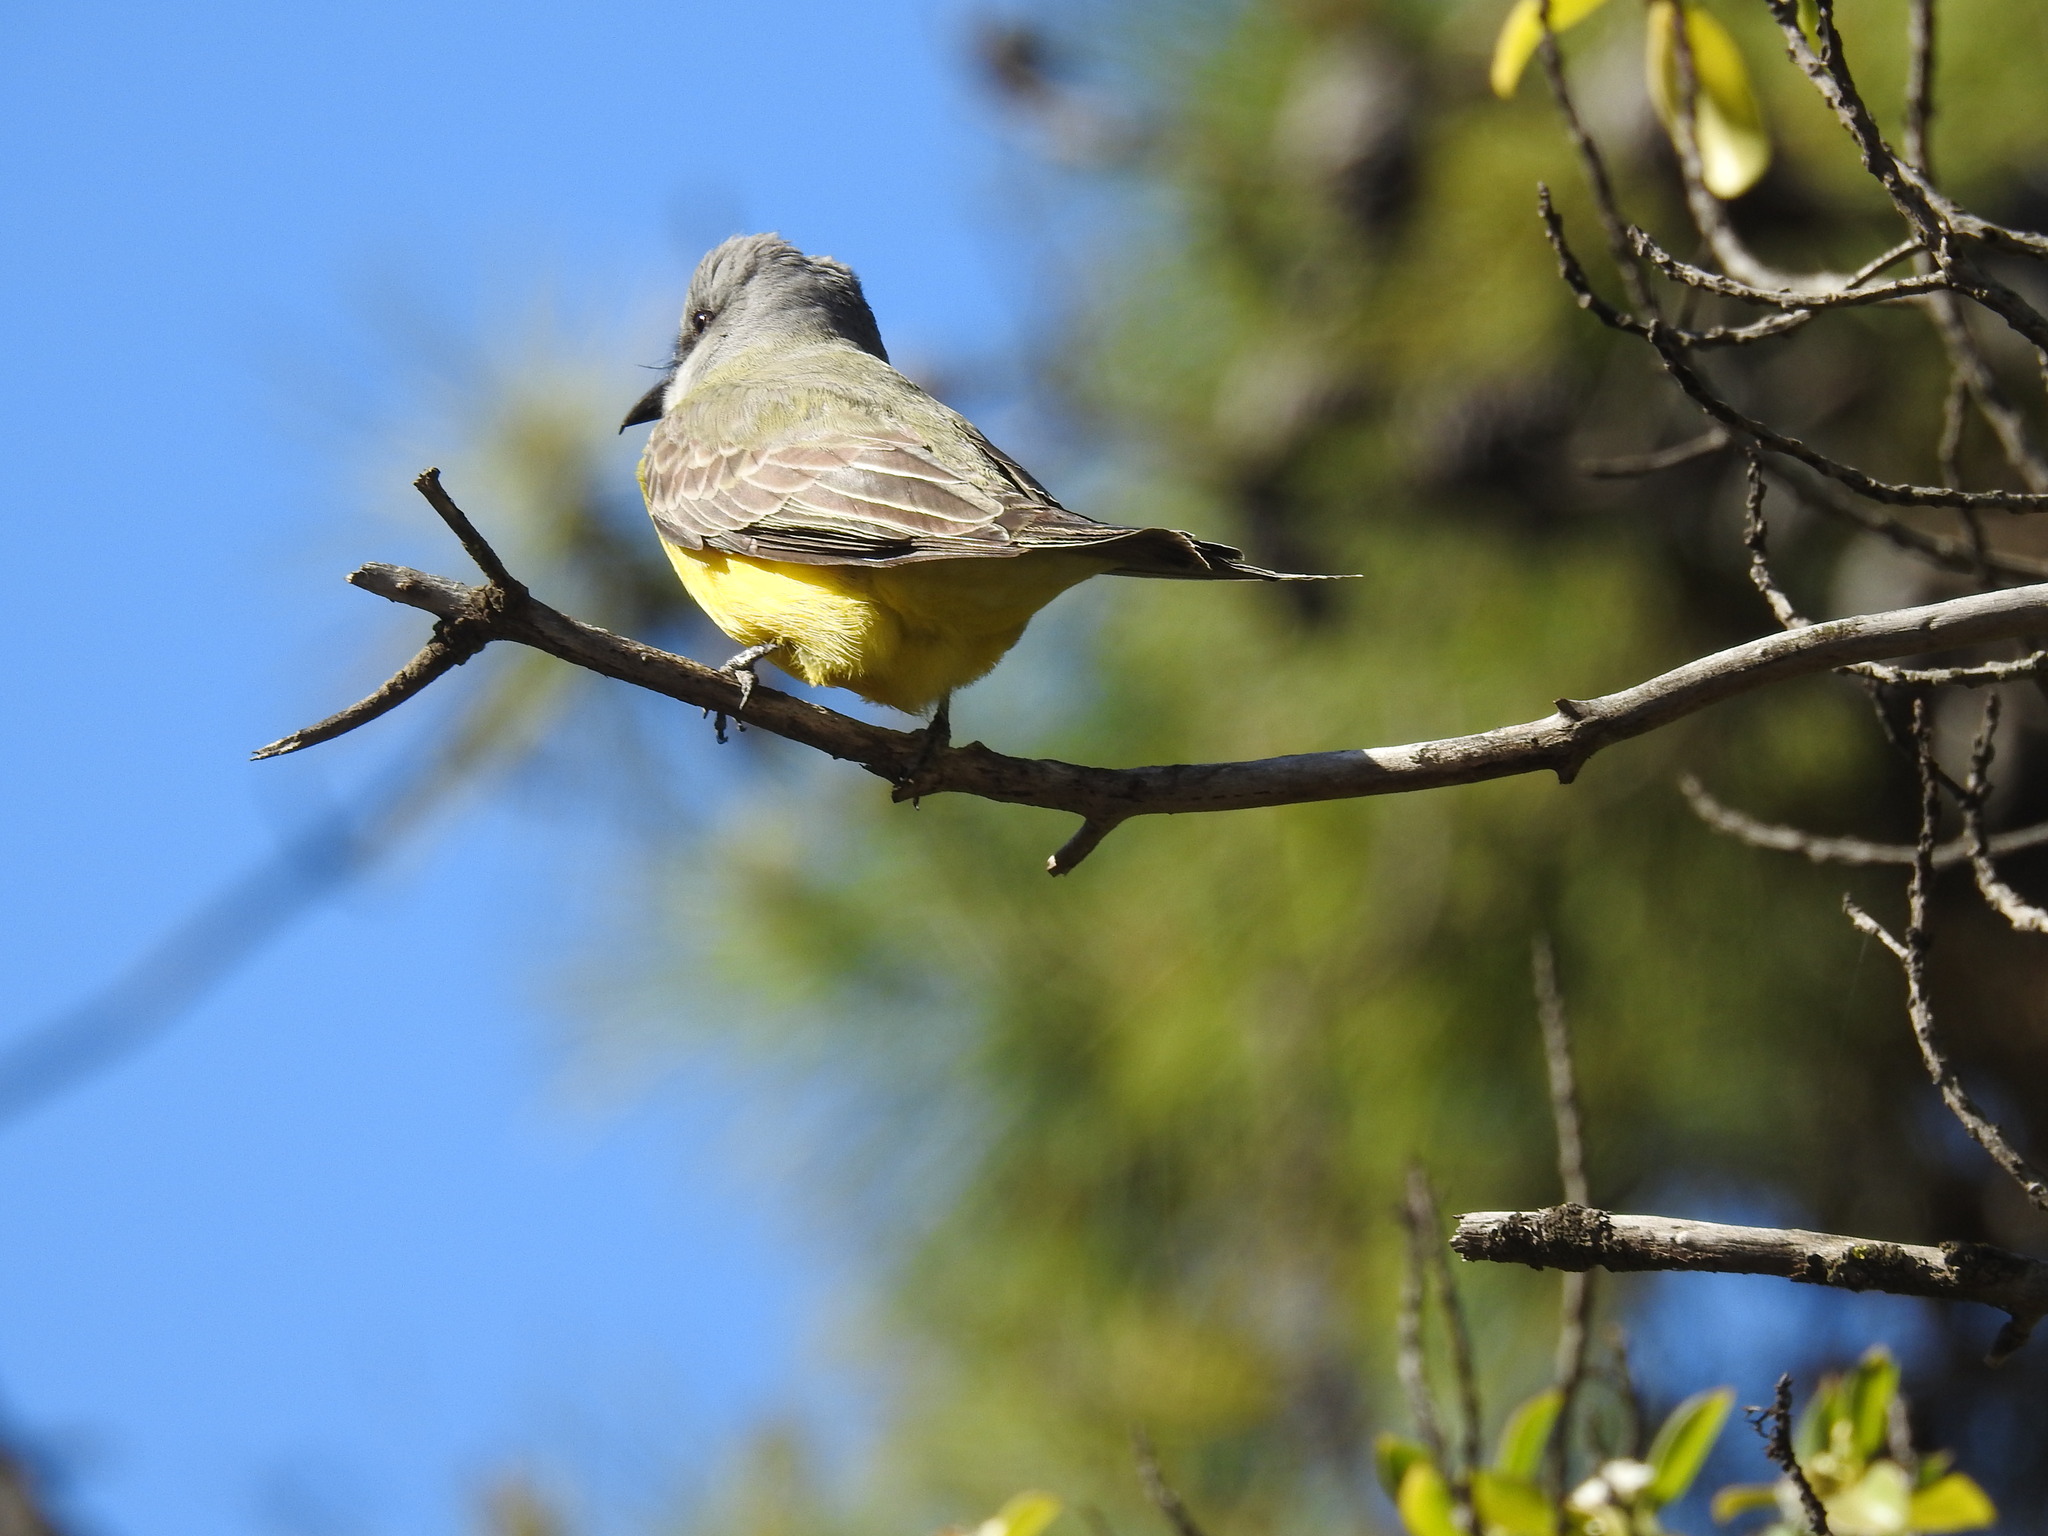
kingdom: Animalia
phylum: Chordata
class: Aves
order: Passeriformes
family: Tyrannidae
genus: Tyrannus
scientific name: Tyrannus melancholicus
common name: Tropical kingbird
